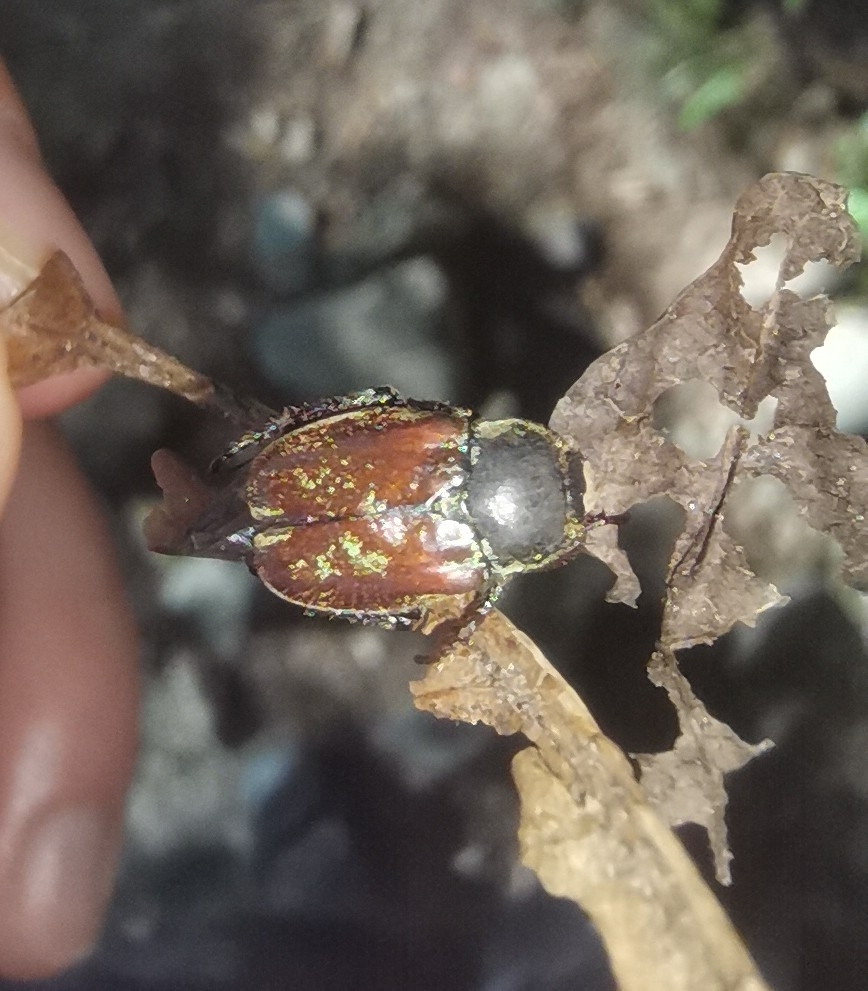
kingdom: Animalia
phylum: Arthropoda
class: Insecta
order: Coleoptera
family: Scarabaeidae
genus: Hoplia
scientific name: Hoplia argentea
